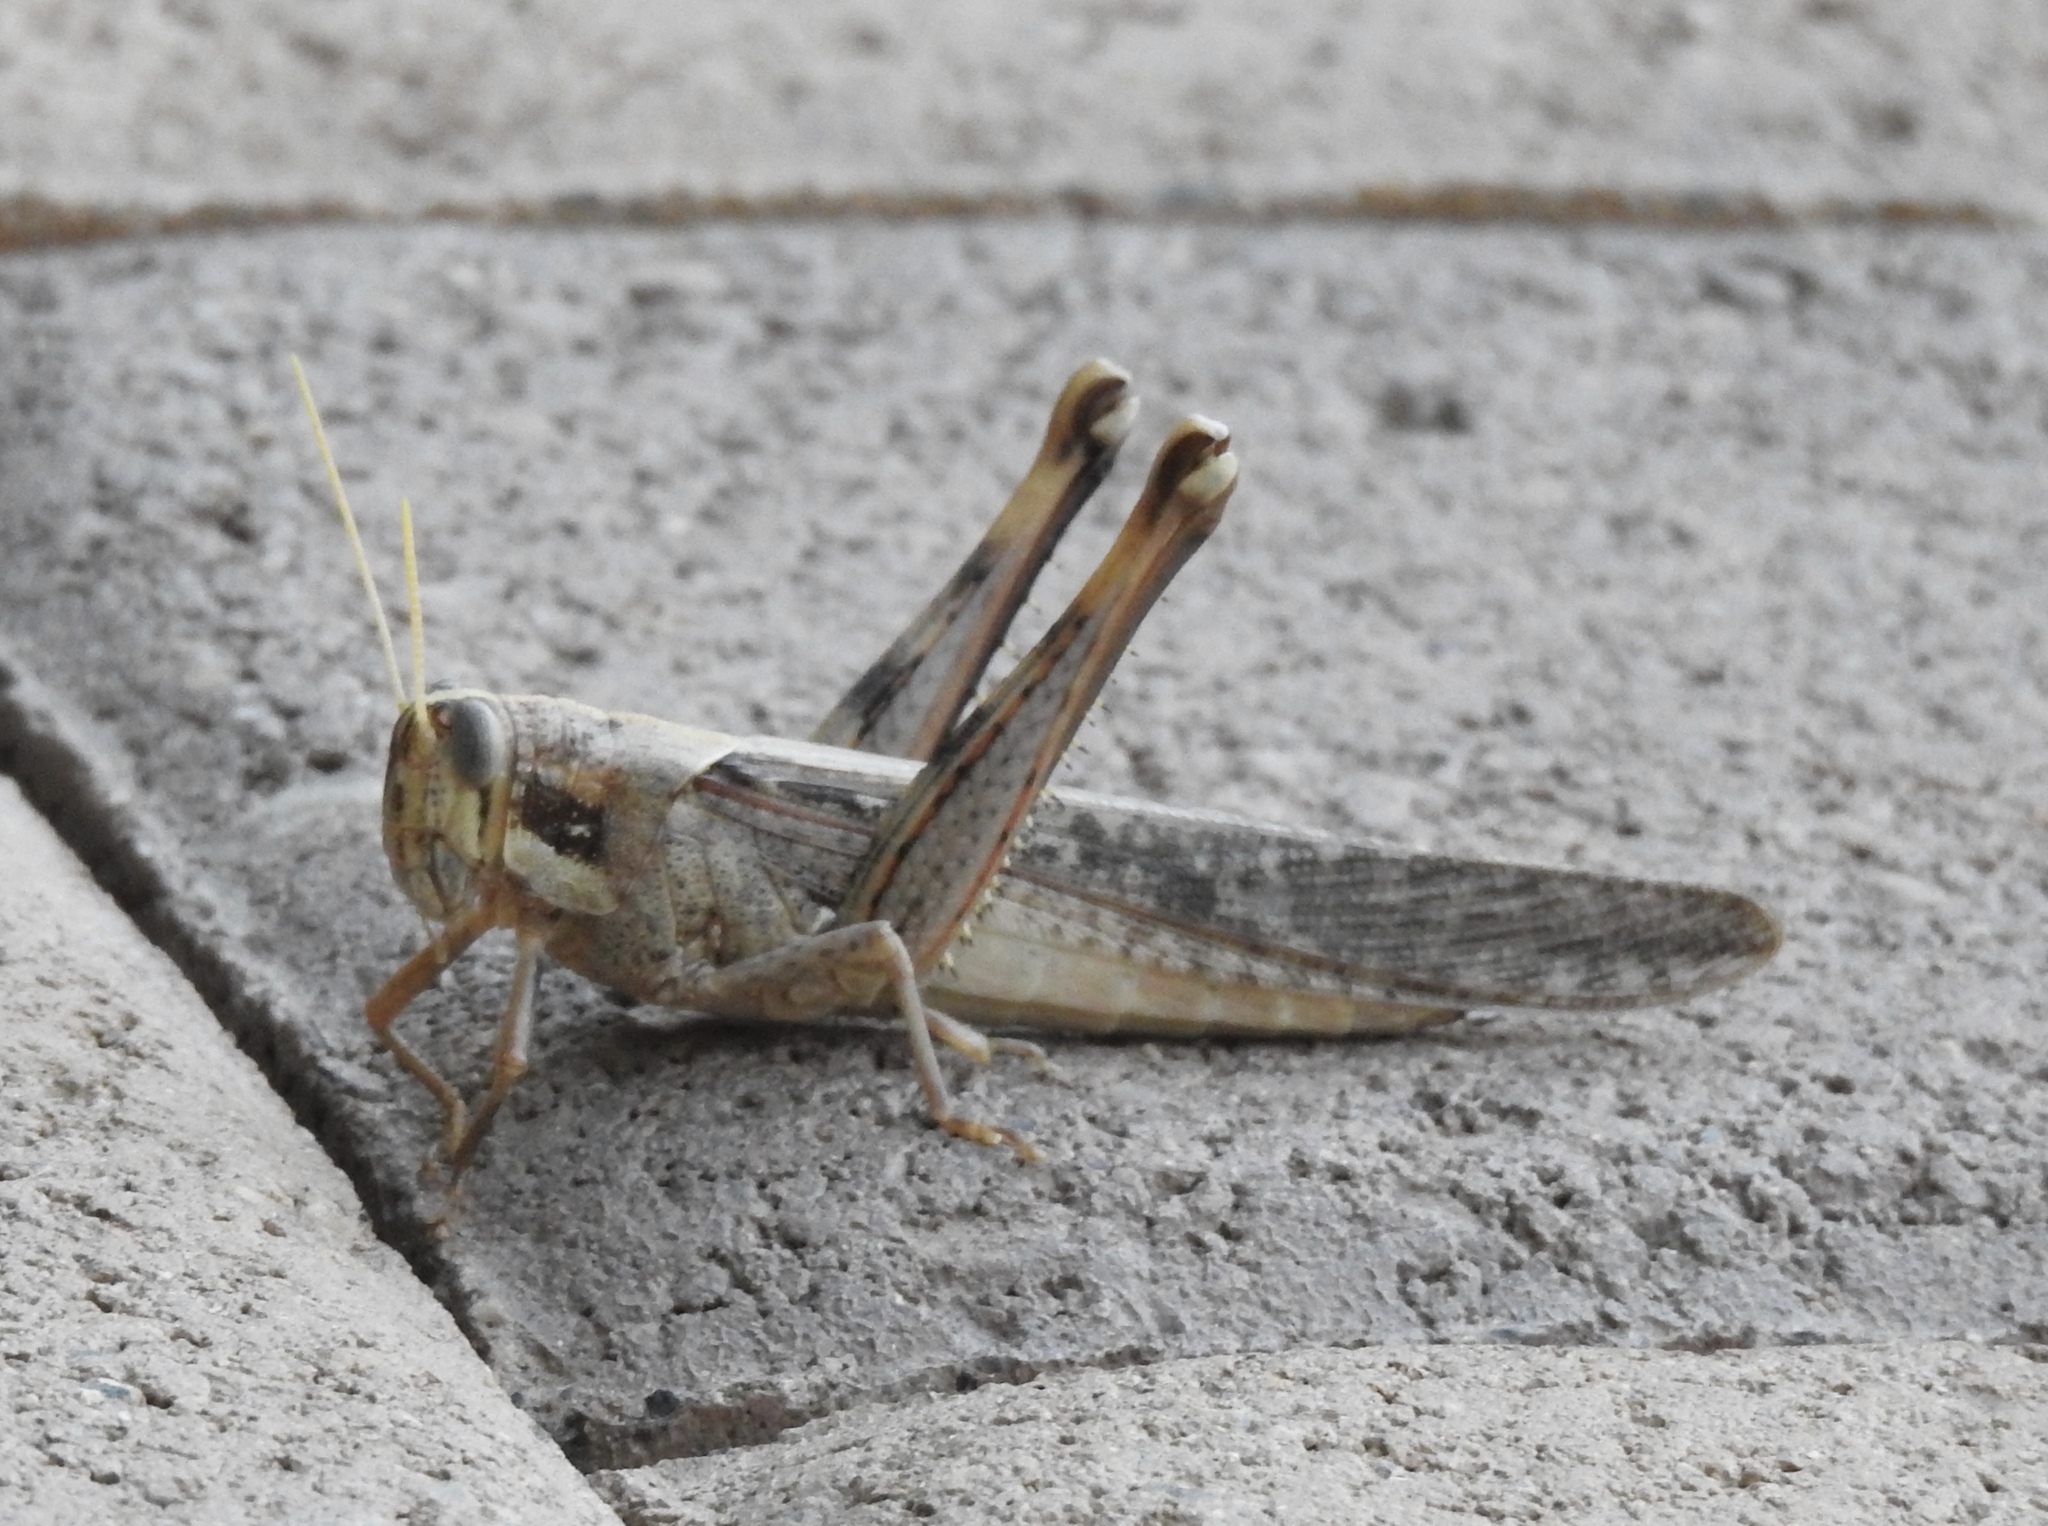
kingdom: Animalia
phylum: Arthropoda
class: Insecta
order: Orthoptera
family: Acrididae
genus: Schistocerca
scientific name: Schistocerca nitens
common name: Vagrant grasshopper
